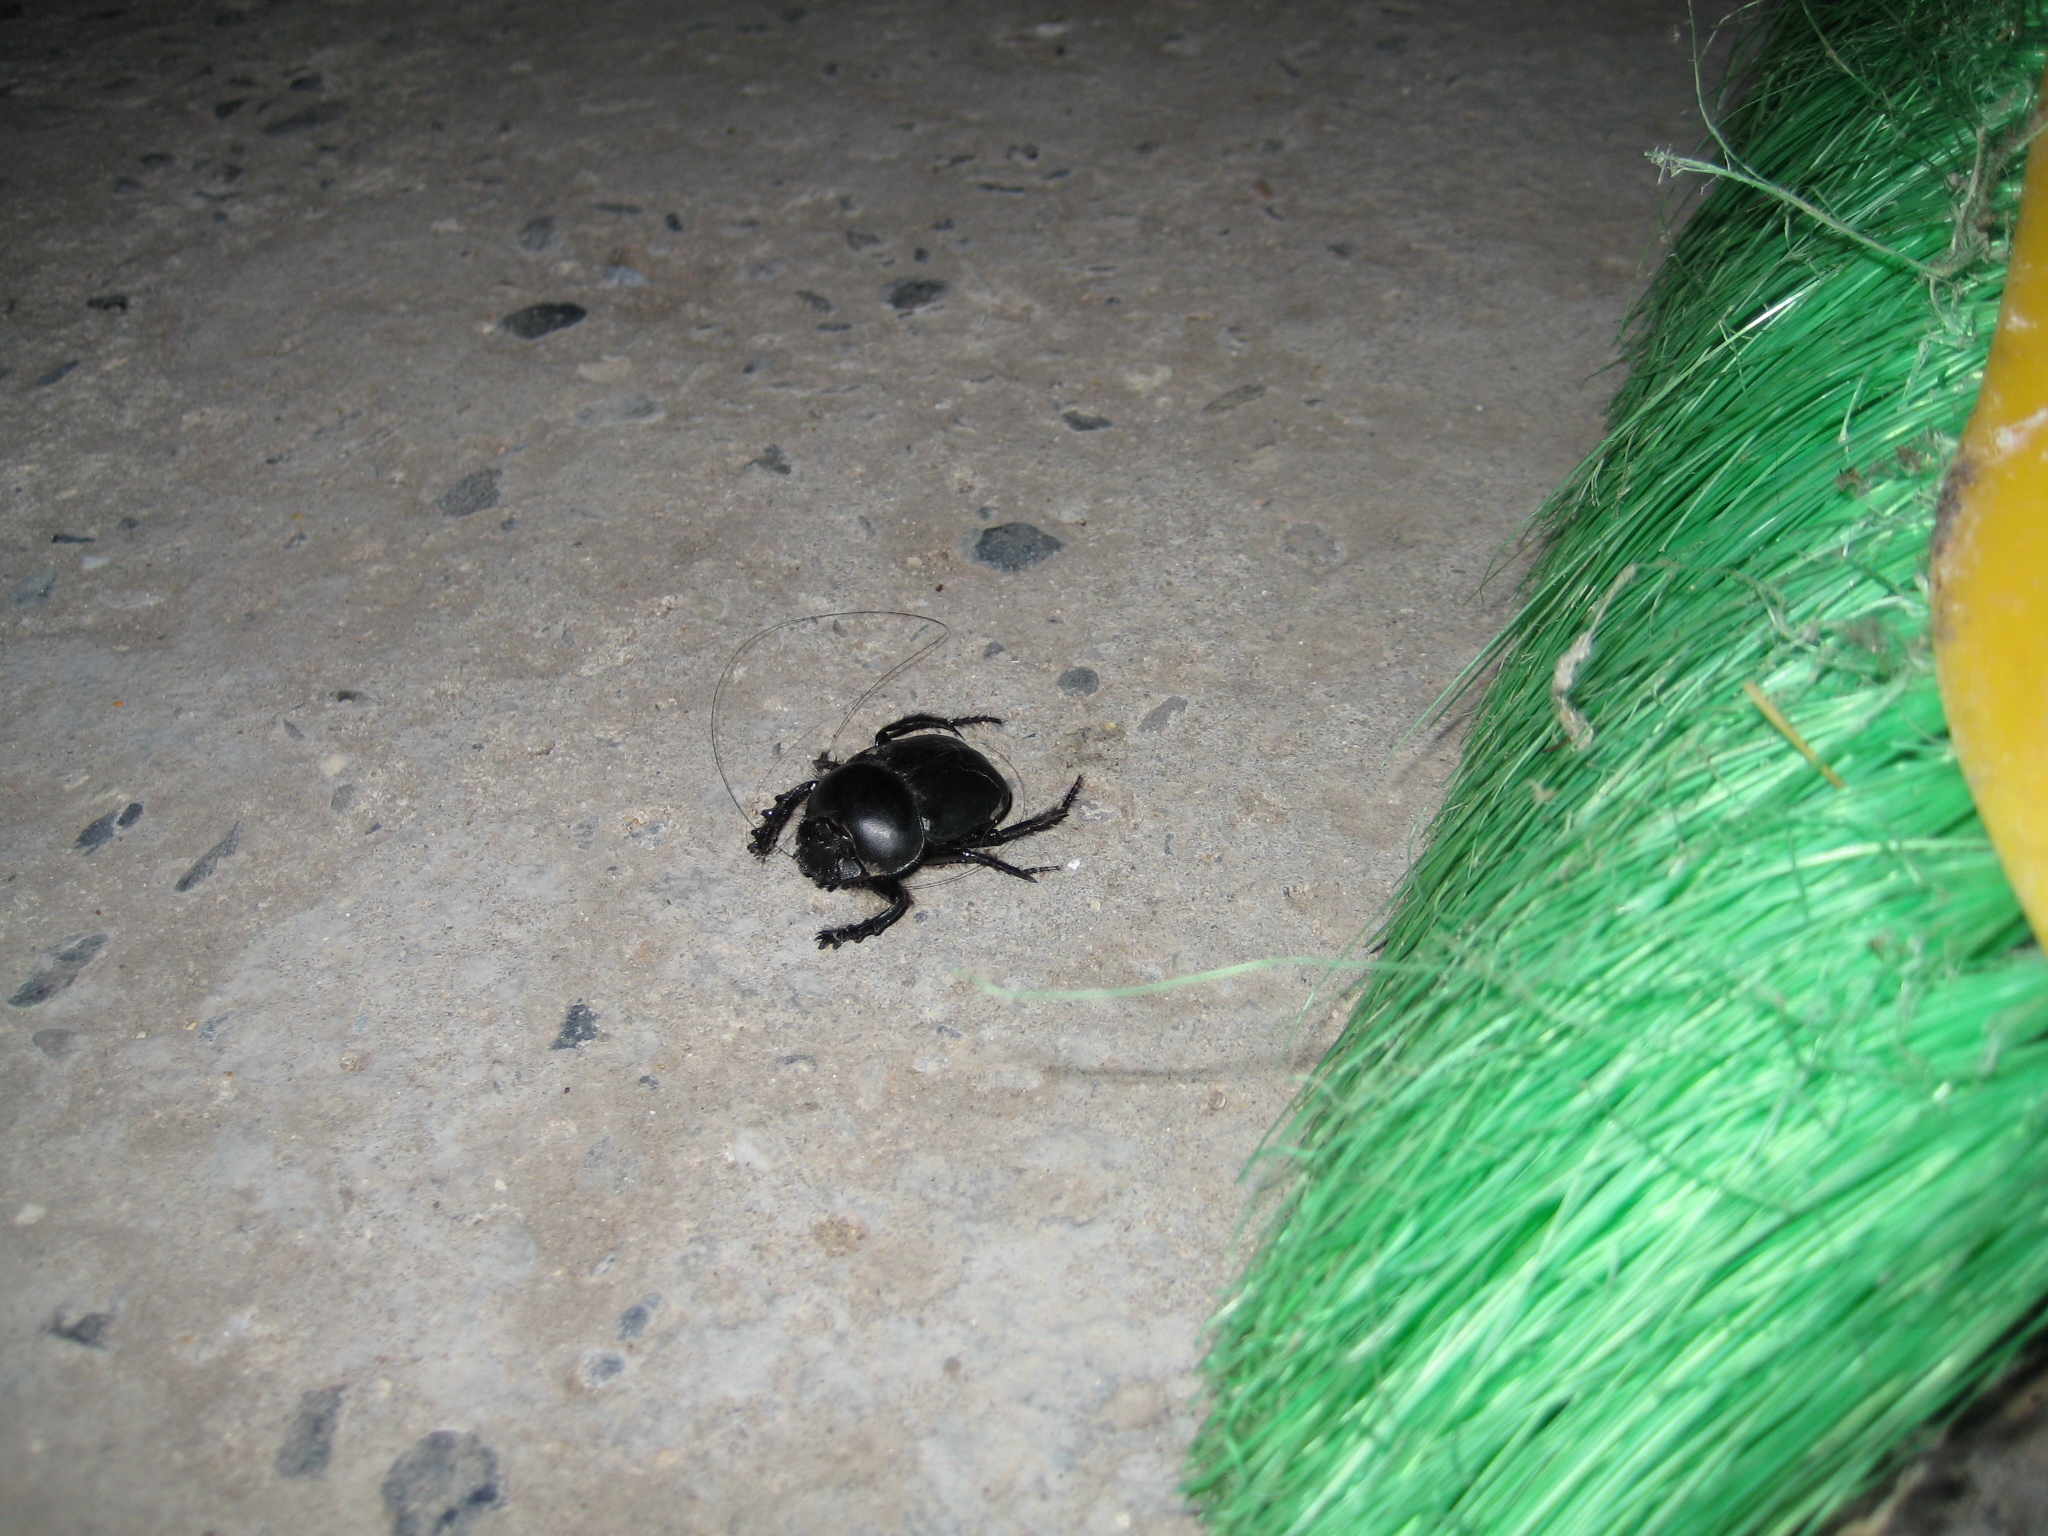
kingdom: Animalia
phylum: Arthropoda
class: Insecta
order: Coleoptera
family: Scarabaeidae
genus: Scarabaeus
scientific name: Scarabaeus sacer
